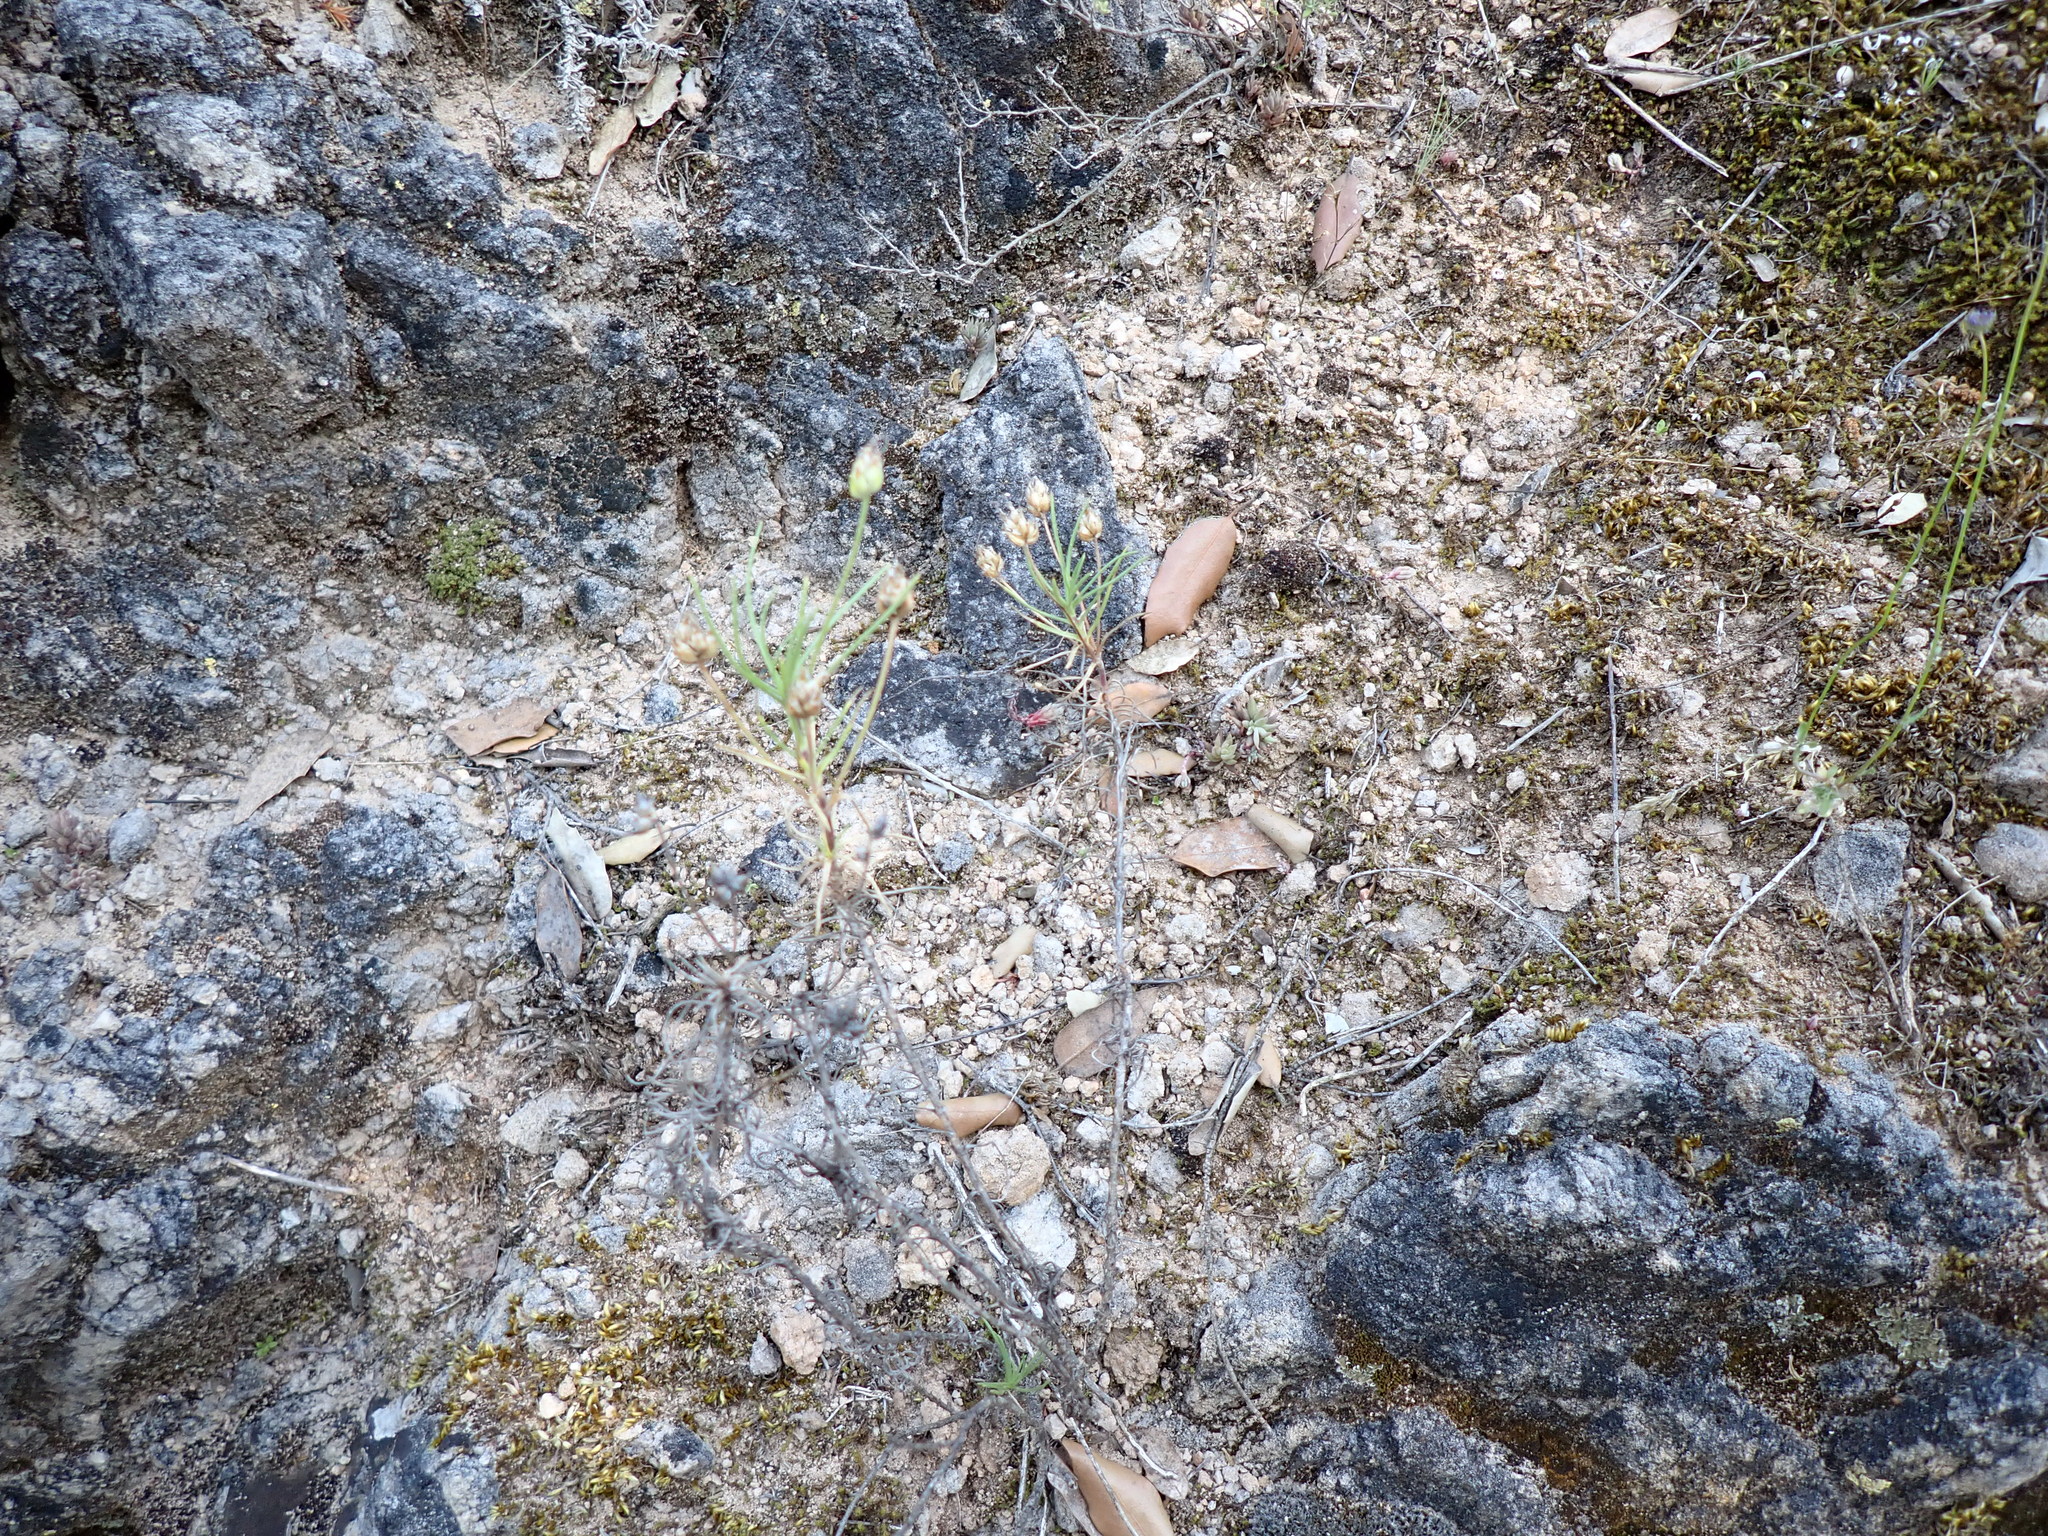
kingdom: Plantae
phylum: Tracheophyta
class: Magnoliopsida
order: Lamiales
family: Plantaginaceae
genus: Plantago
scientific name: Plantago sempervirens
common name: Shrubby plantain
